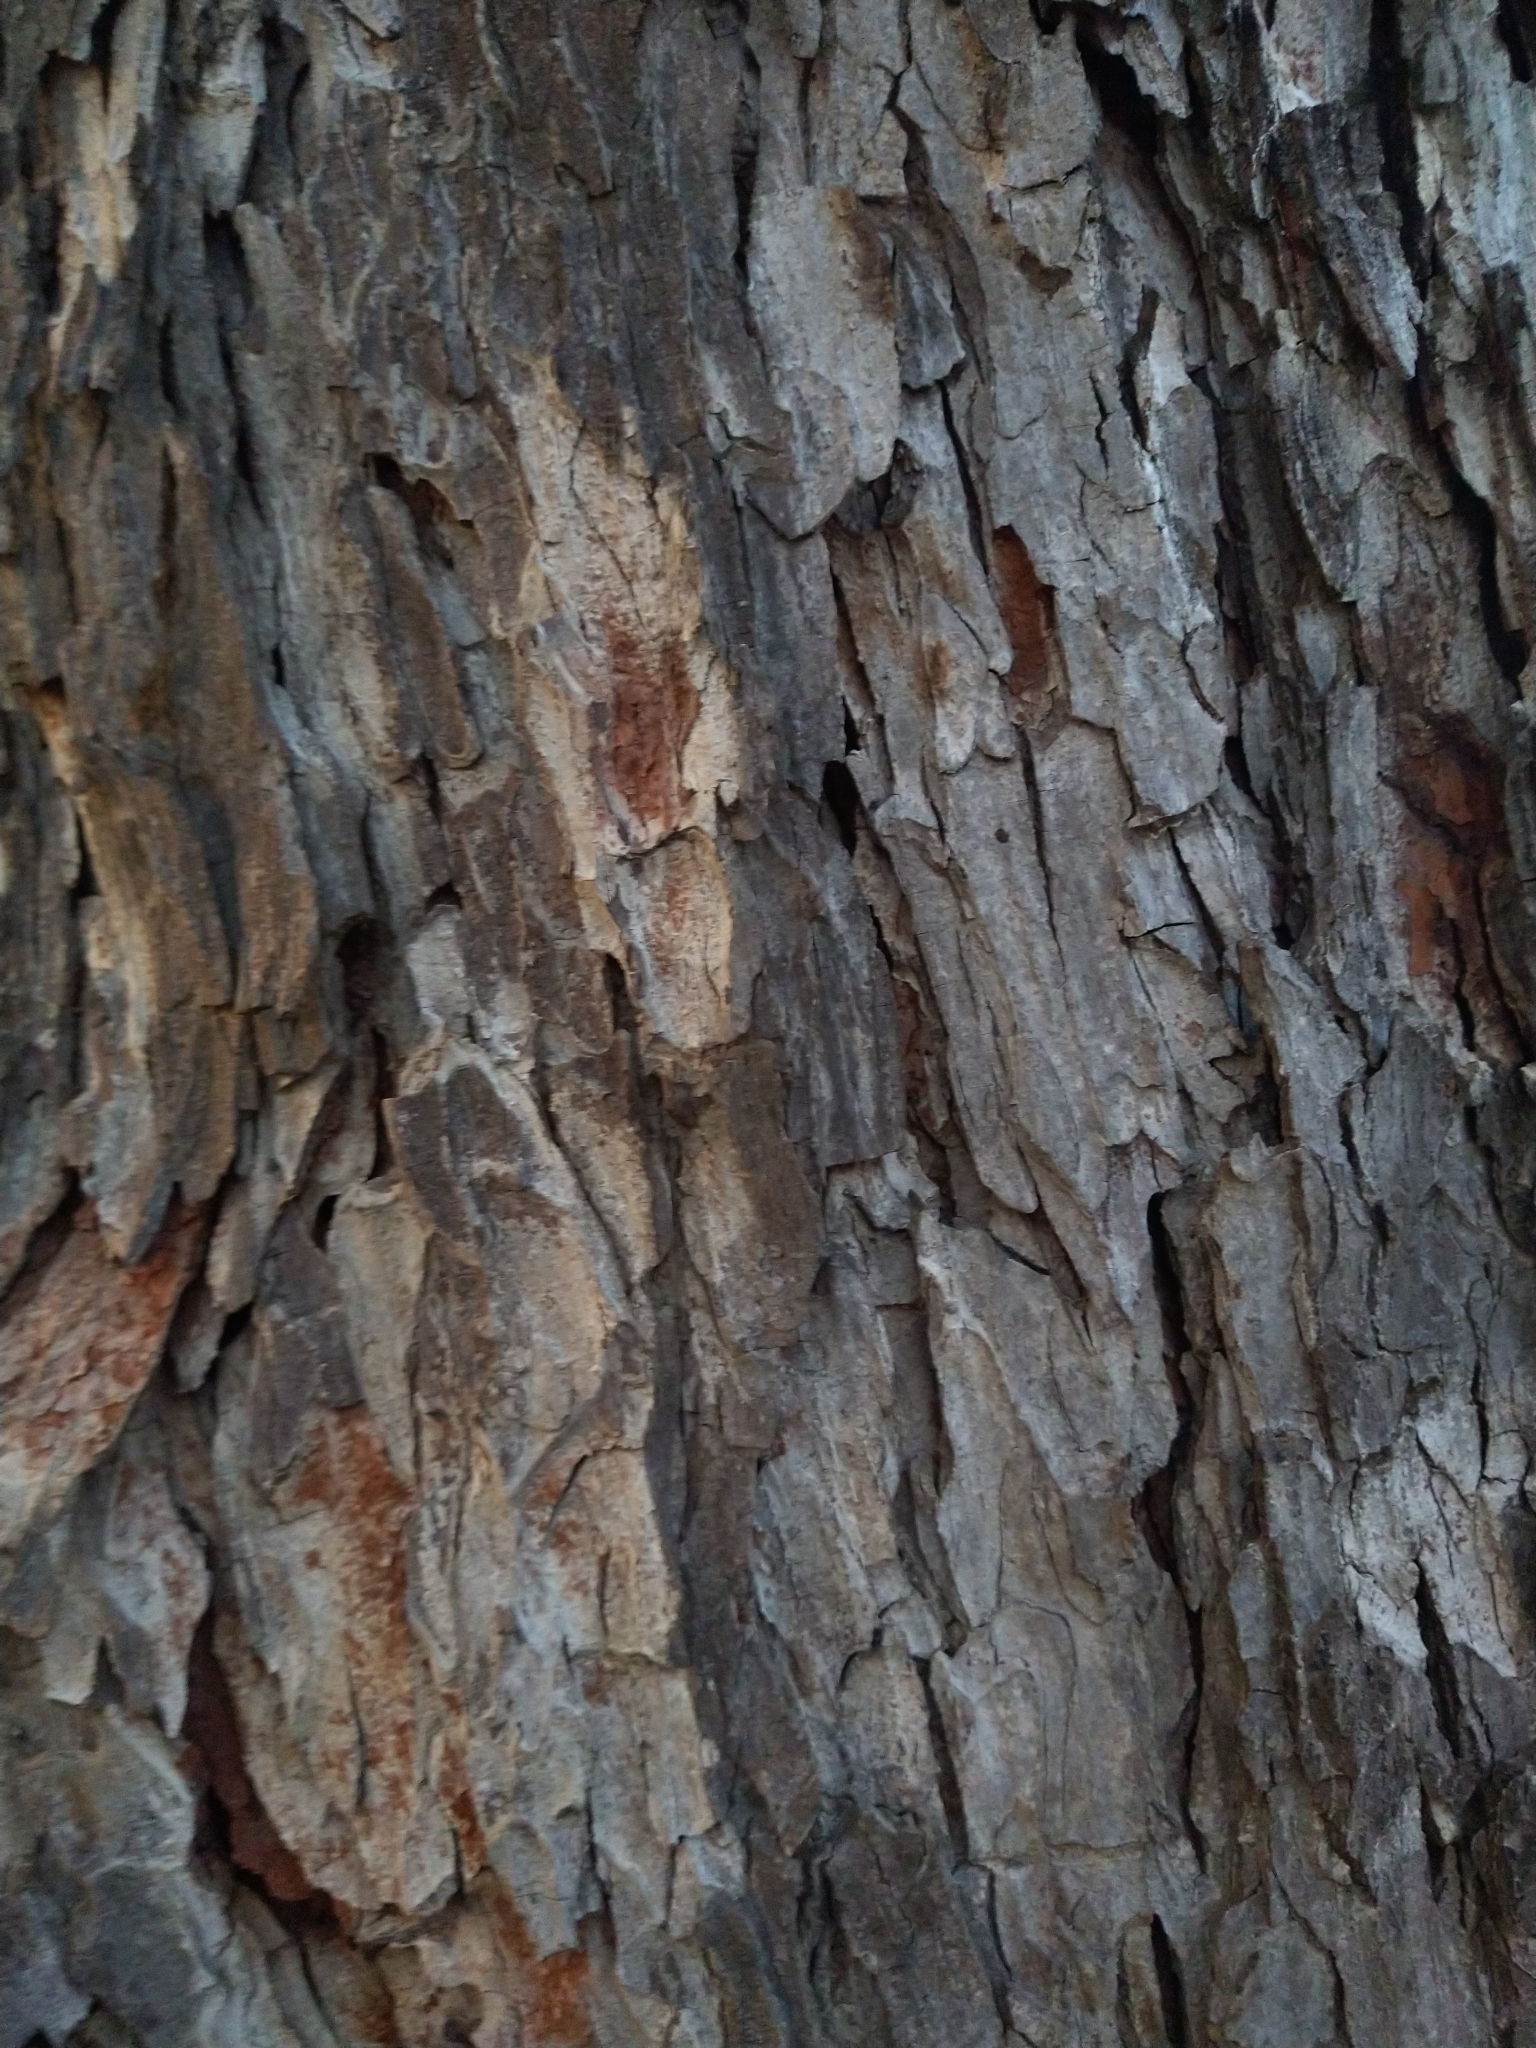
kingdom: Plantae
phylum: Tracheophyta
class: Magnoliopsida
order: Fagales
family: Juglandaceae
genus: Carya
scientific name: Carya illinoinensis
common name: Pecan
